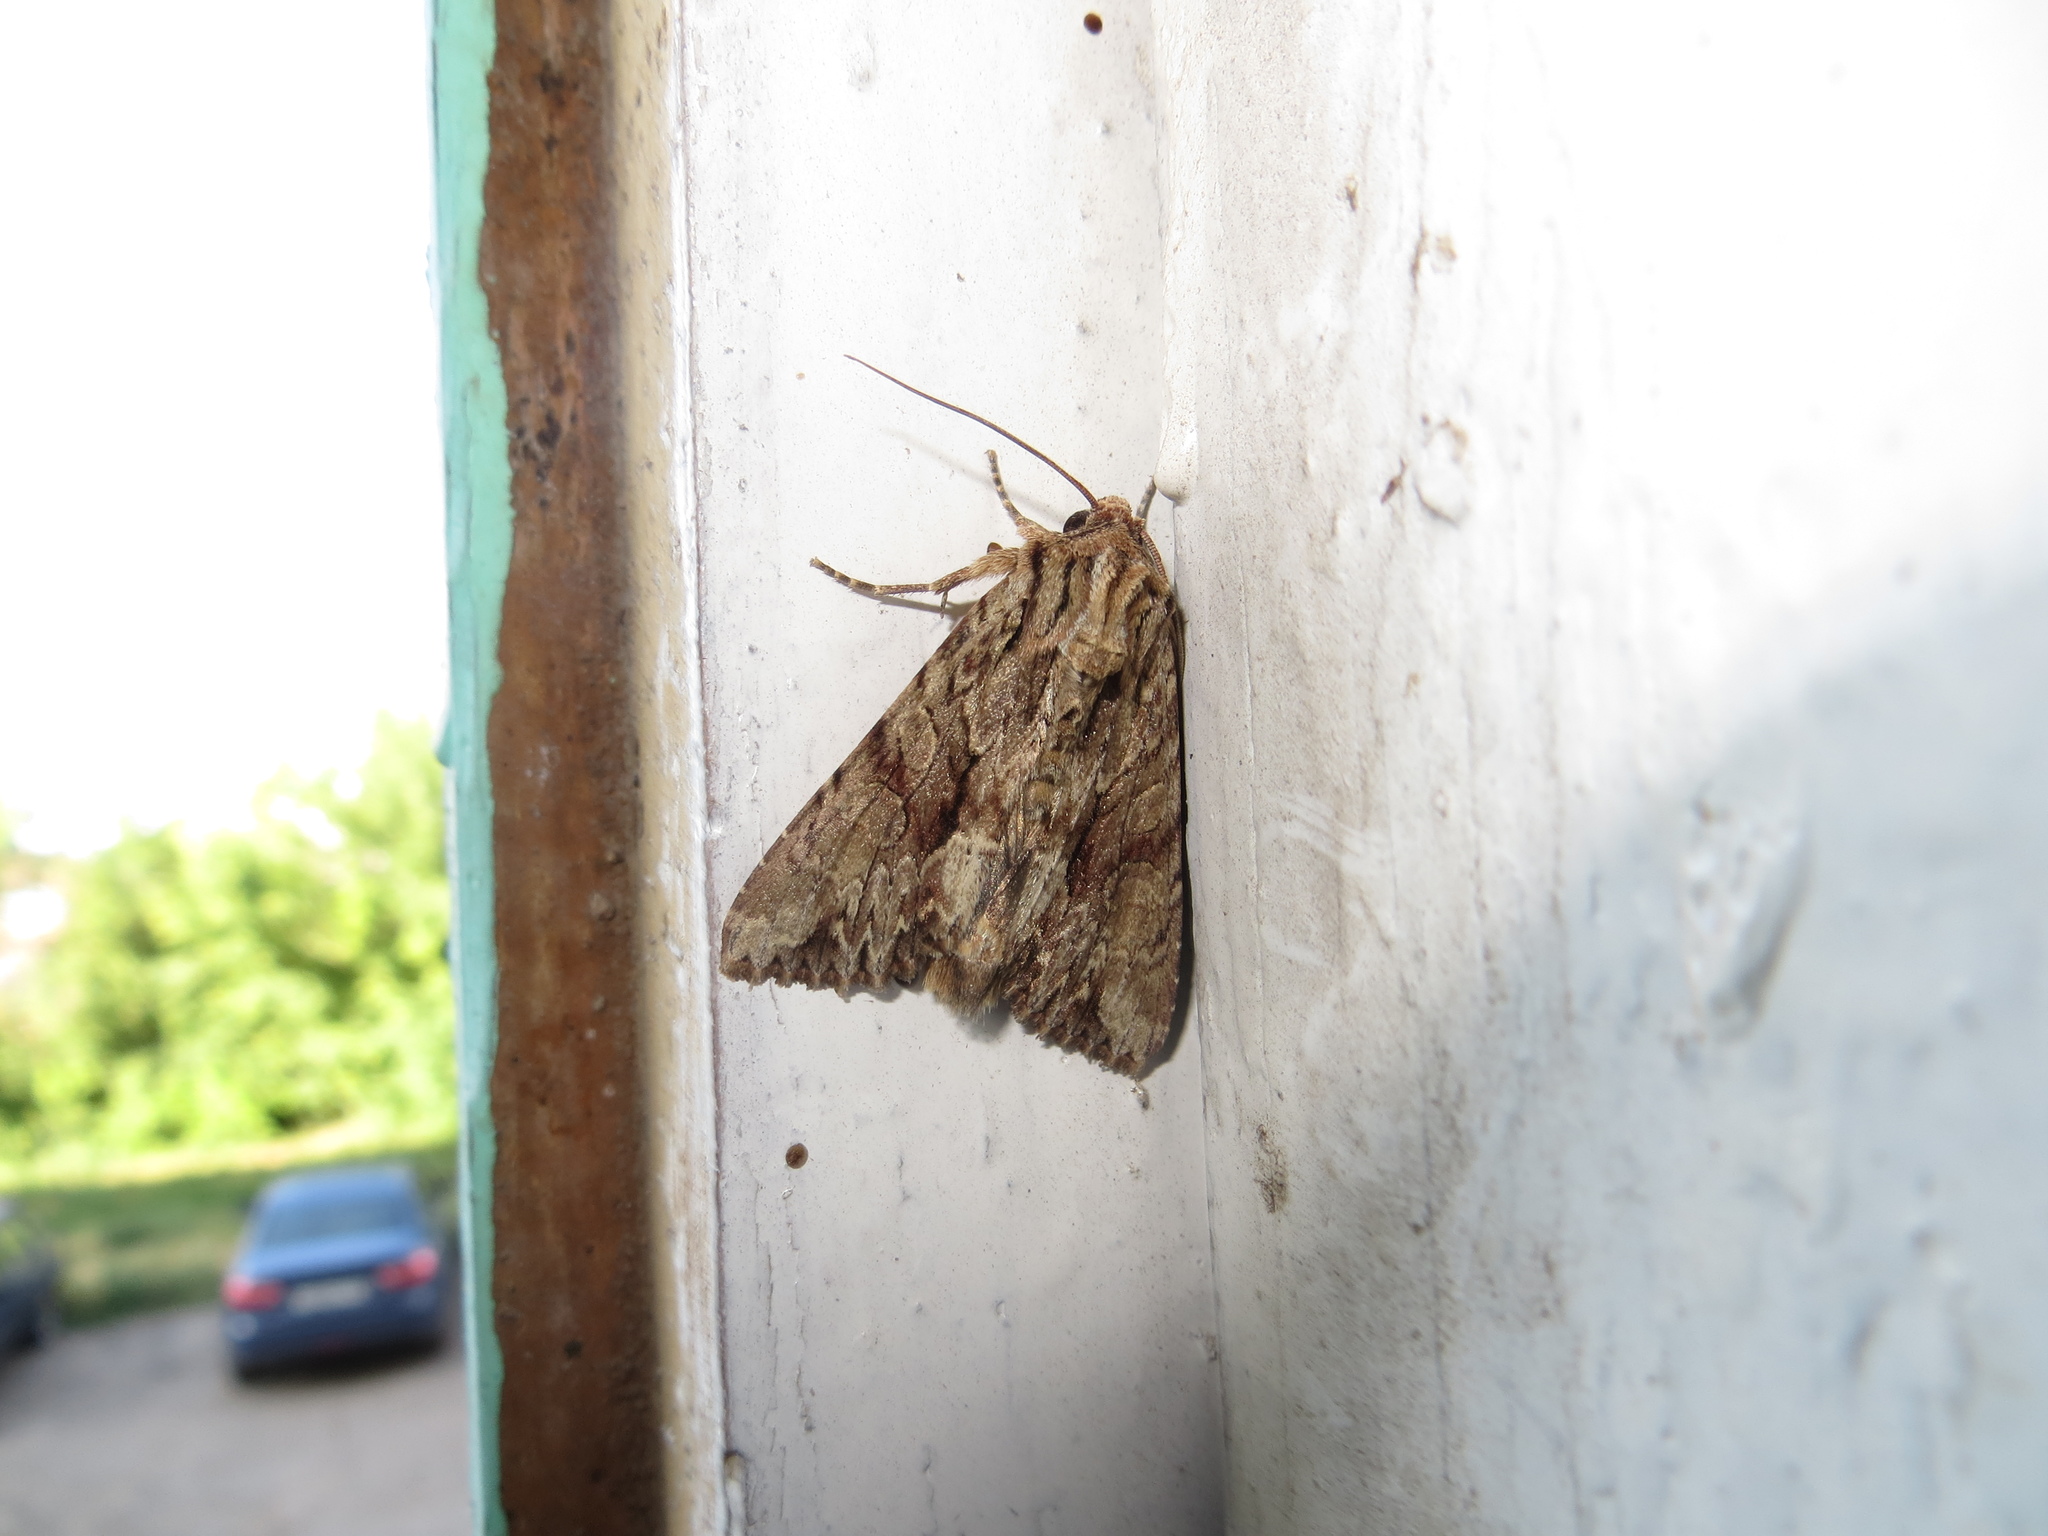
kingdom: Animalia
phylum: Arthropoda
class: Insecta
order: Lepidoptera
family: Noctuidae
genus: Apamea
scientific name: Apamea monoglypha
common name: Dark arches
